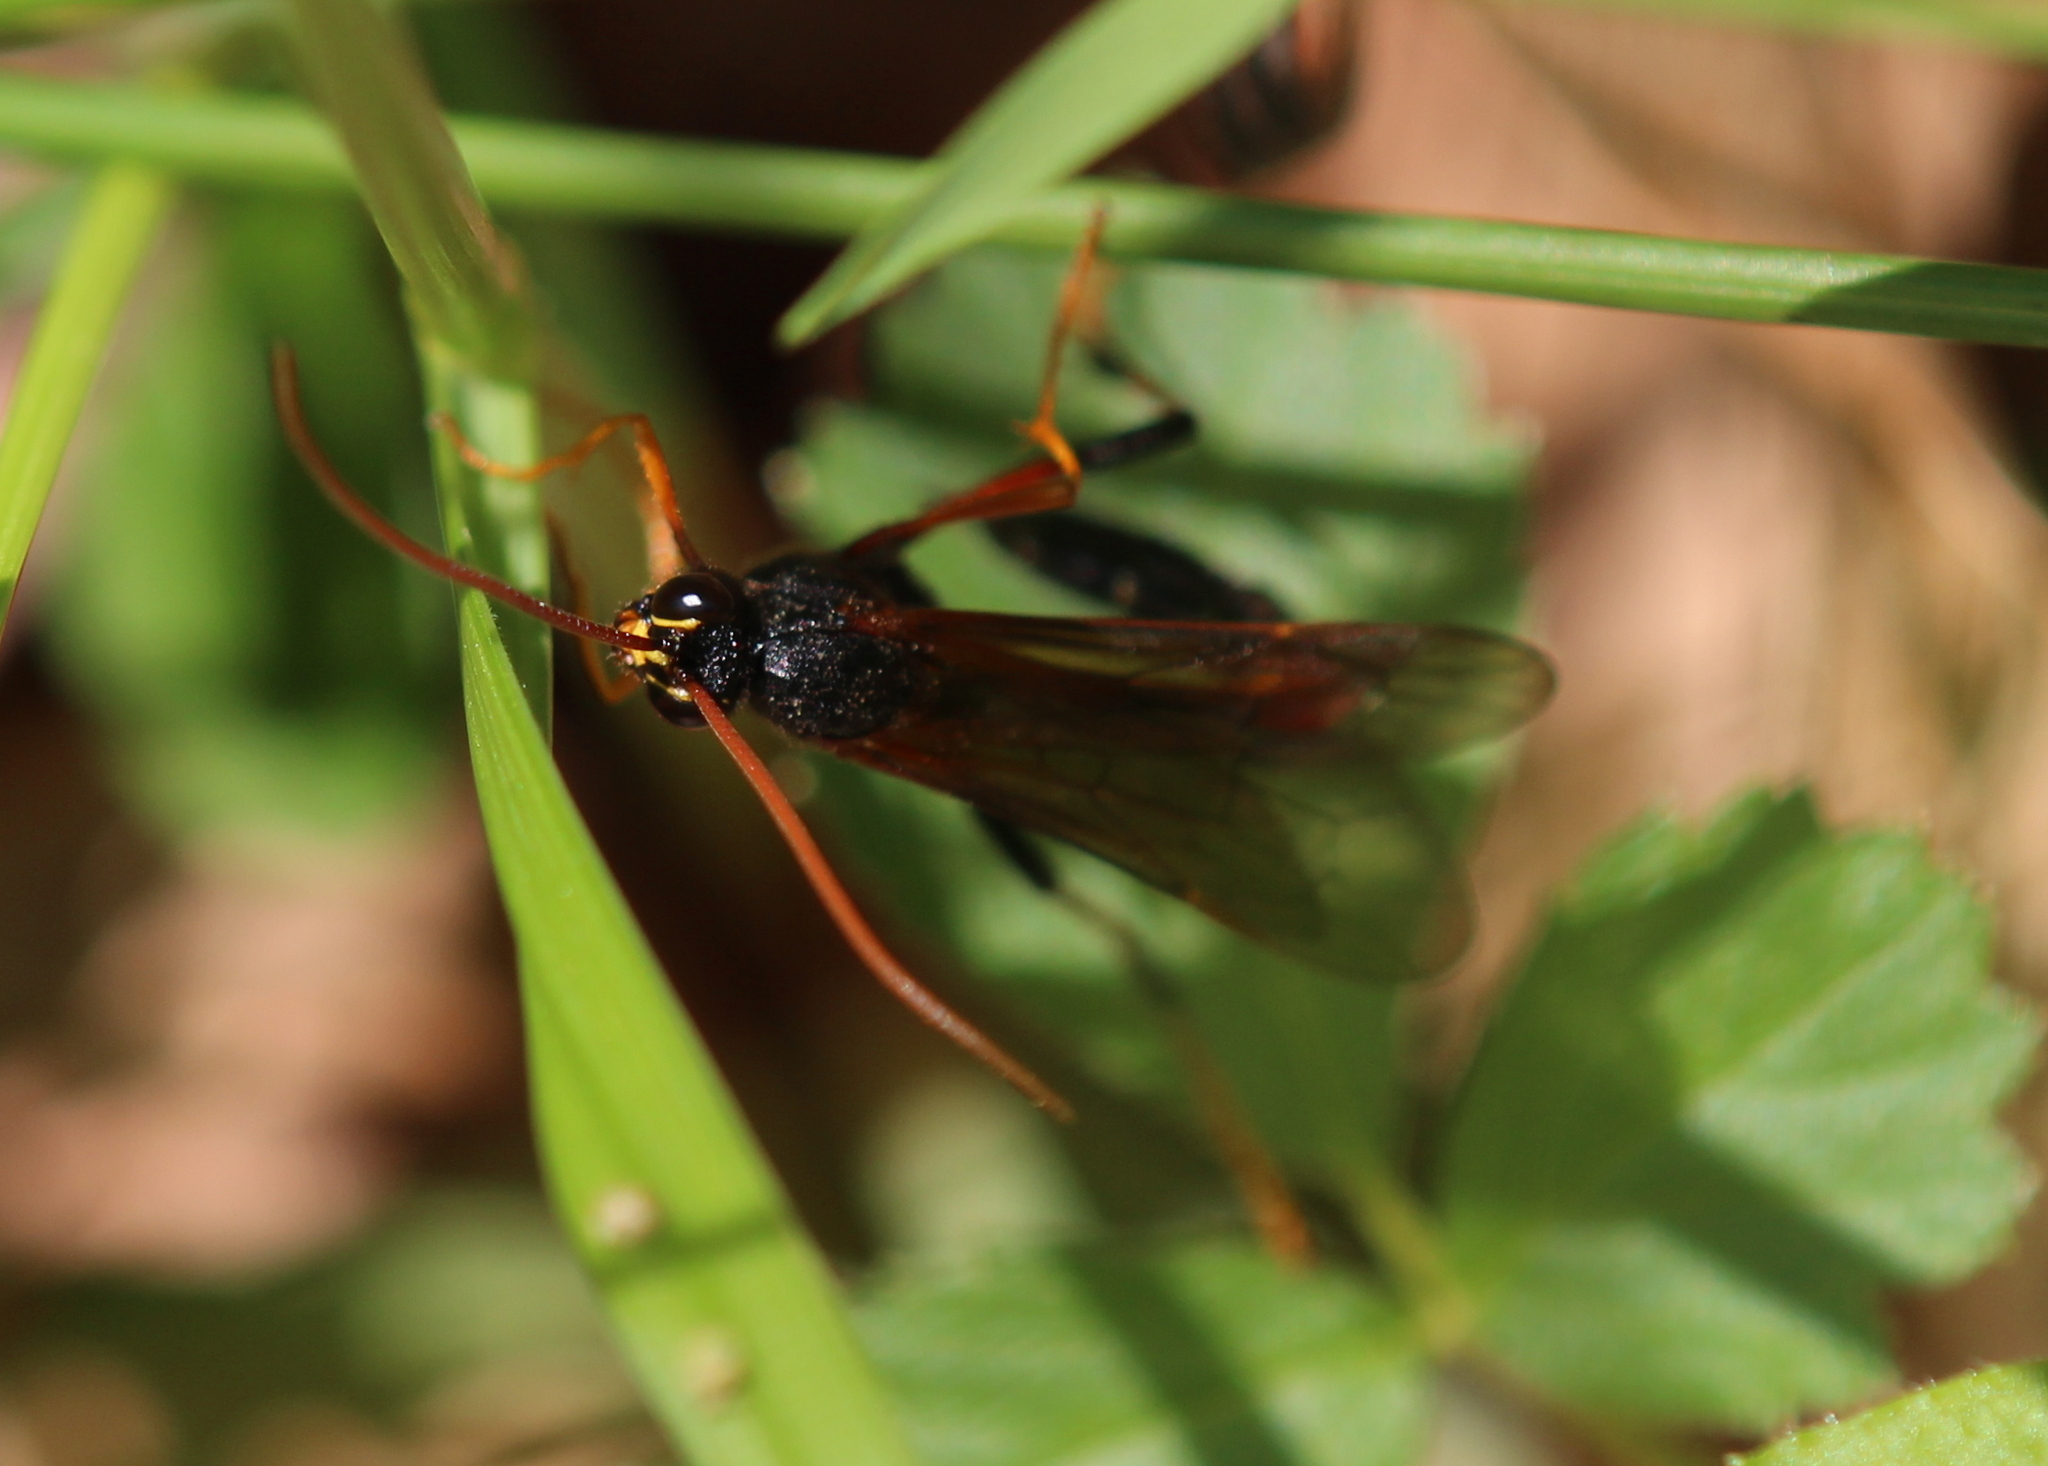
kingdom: Animalia
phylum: Arthropoda
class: Insecta
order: Hymenoptera
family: Ichneumonidae
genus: Therion
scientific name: Therion circumflexum
